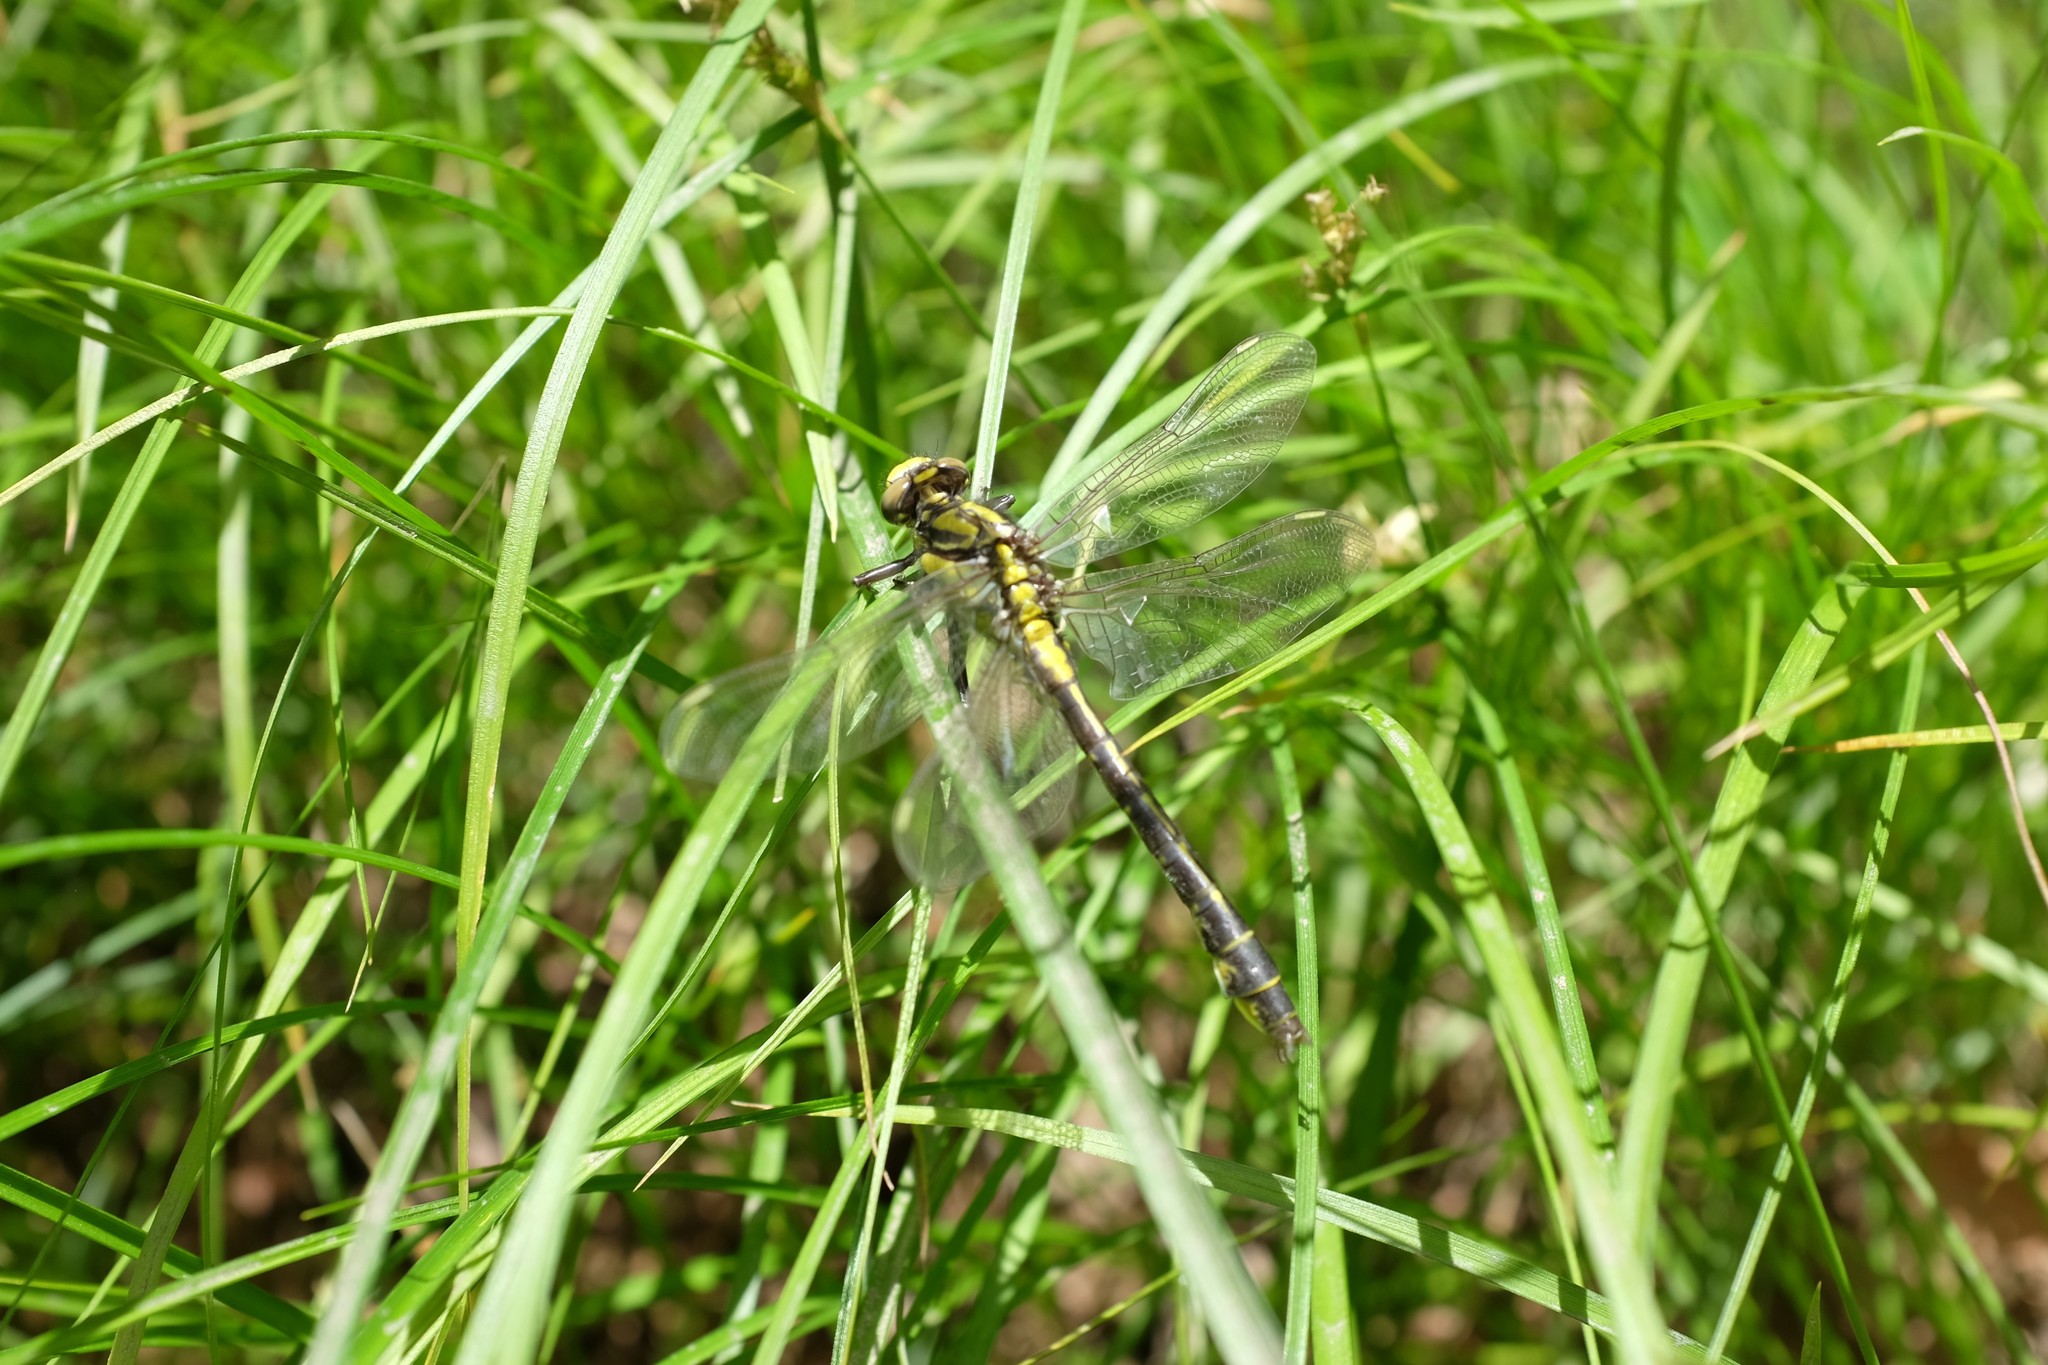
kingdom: Animalia
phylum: Arthropoda
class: Insecta
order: Odonata
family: Gomphidae
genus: Gomphus
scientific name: Gomphus vulgatissimus
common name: Club-tailed dragonfly
